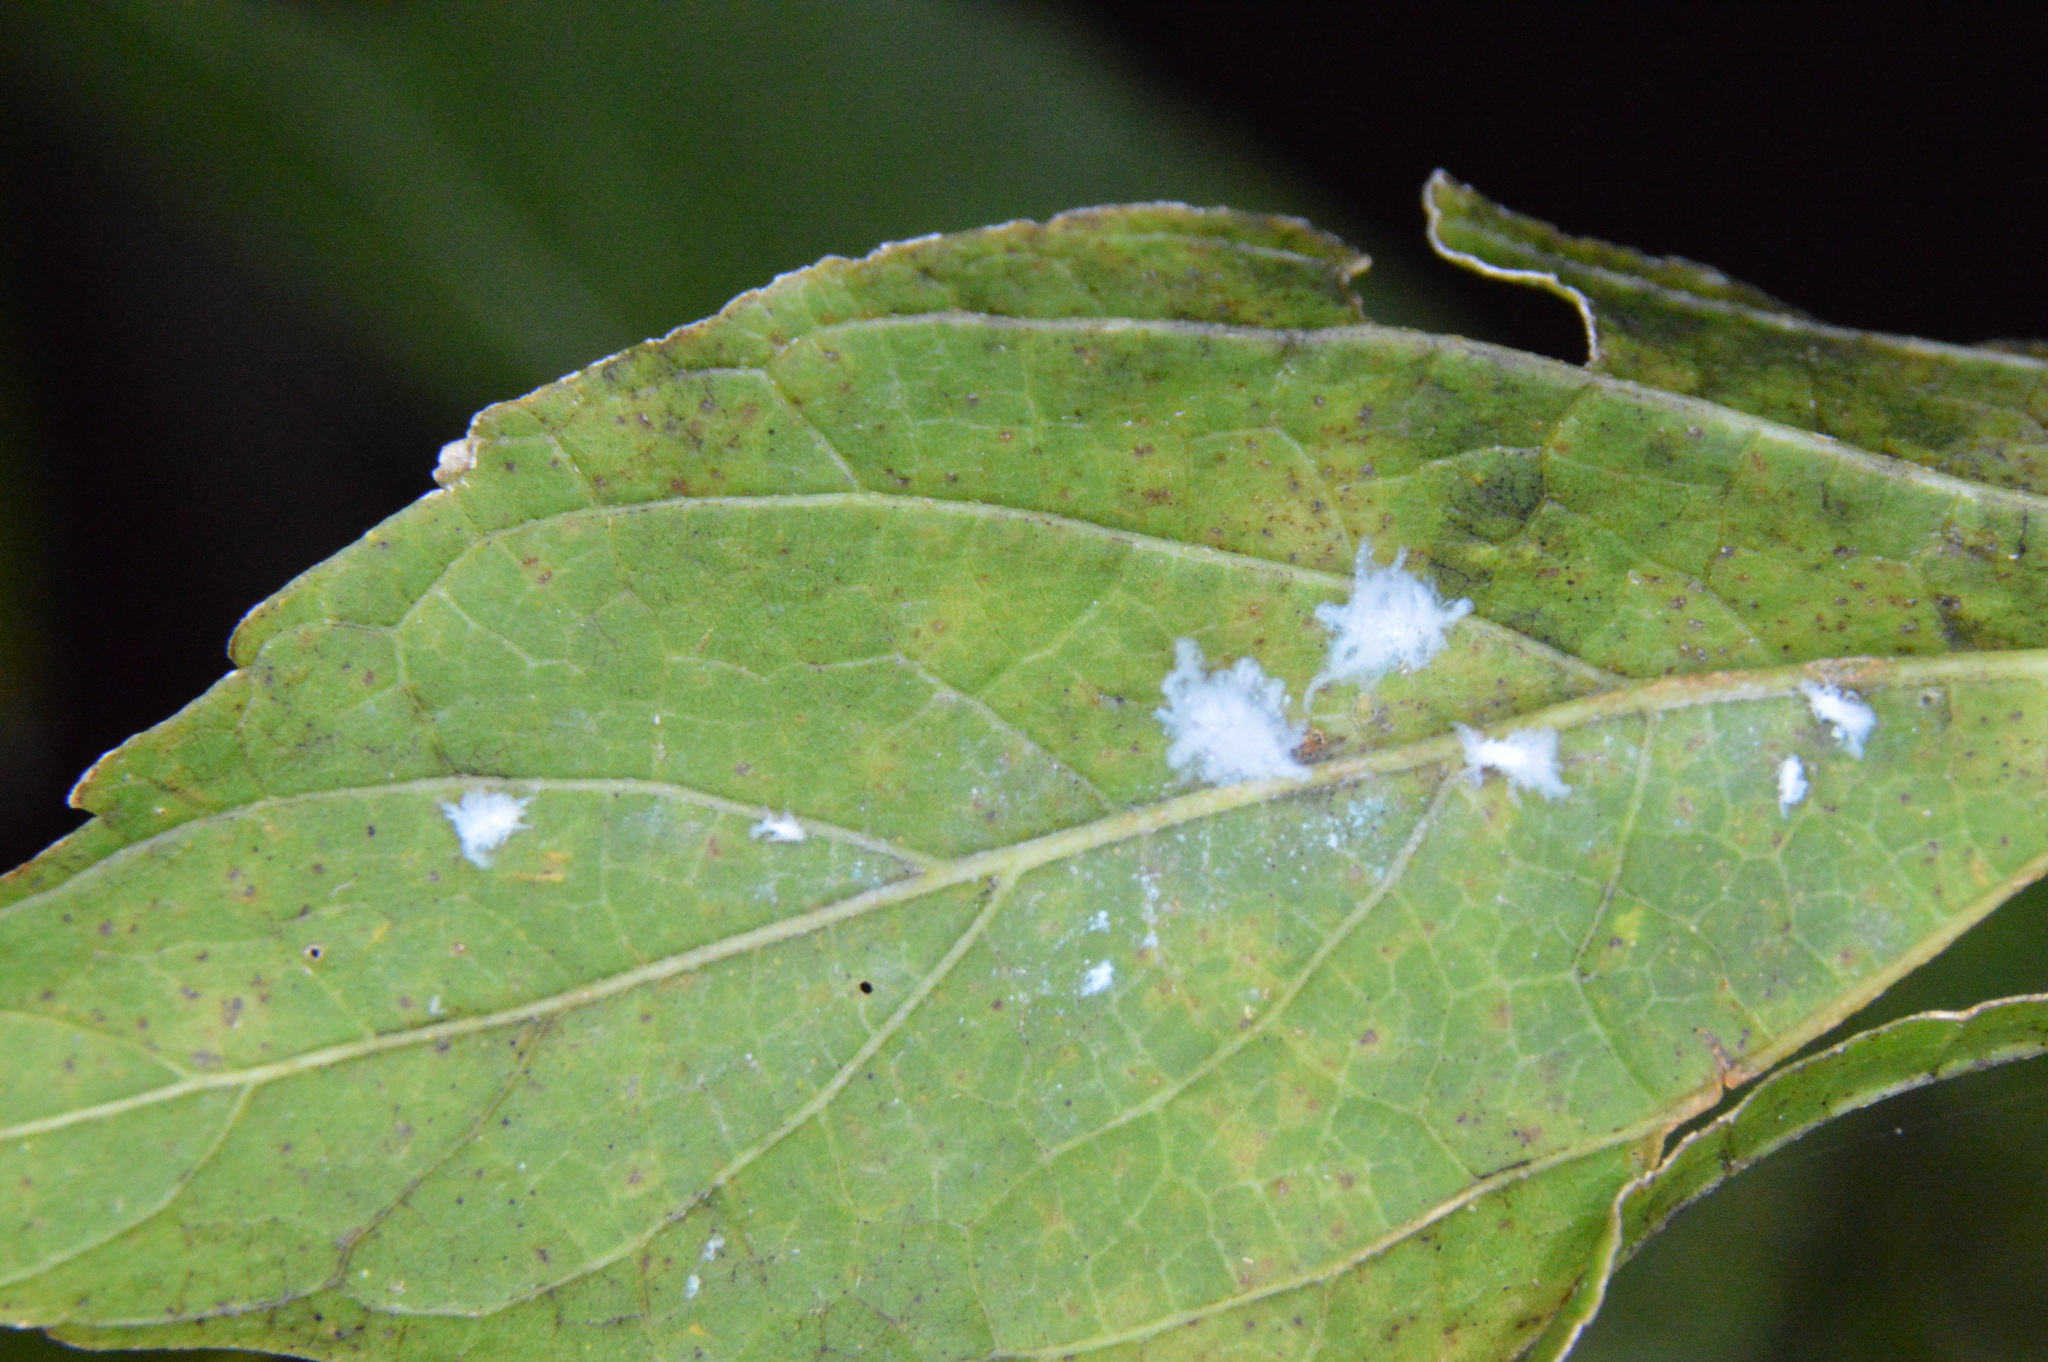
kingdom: Animalia
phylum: Arthropoda
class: Insecta
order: Hemiptera
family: Aphididae
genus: Shivaphis
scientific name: Shivaphis celti
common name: Asian wooly hackberry aphid
